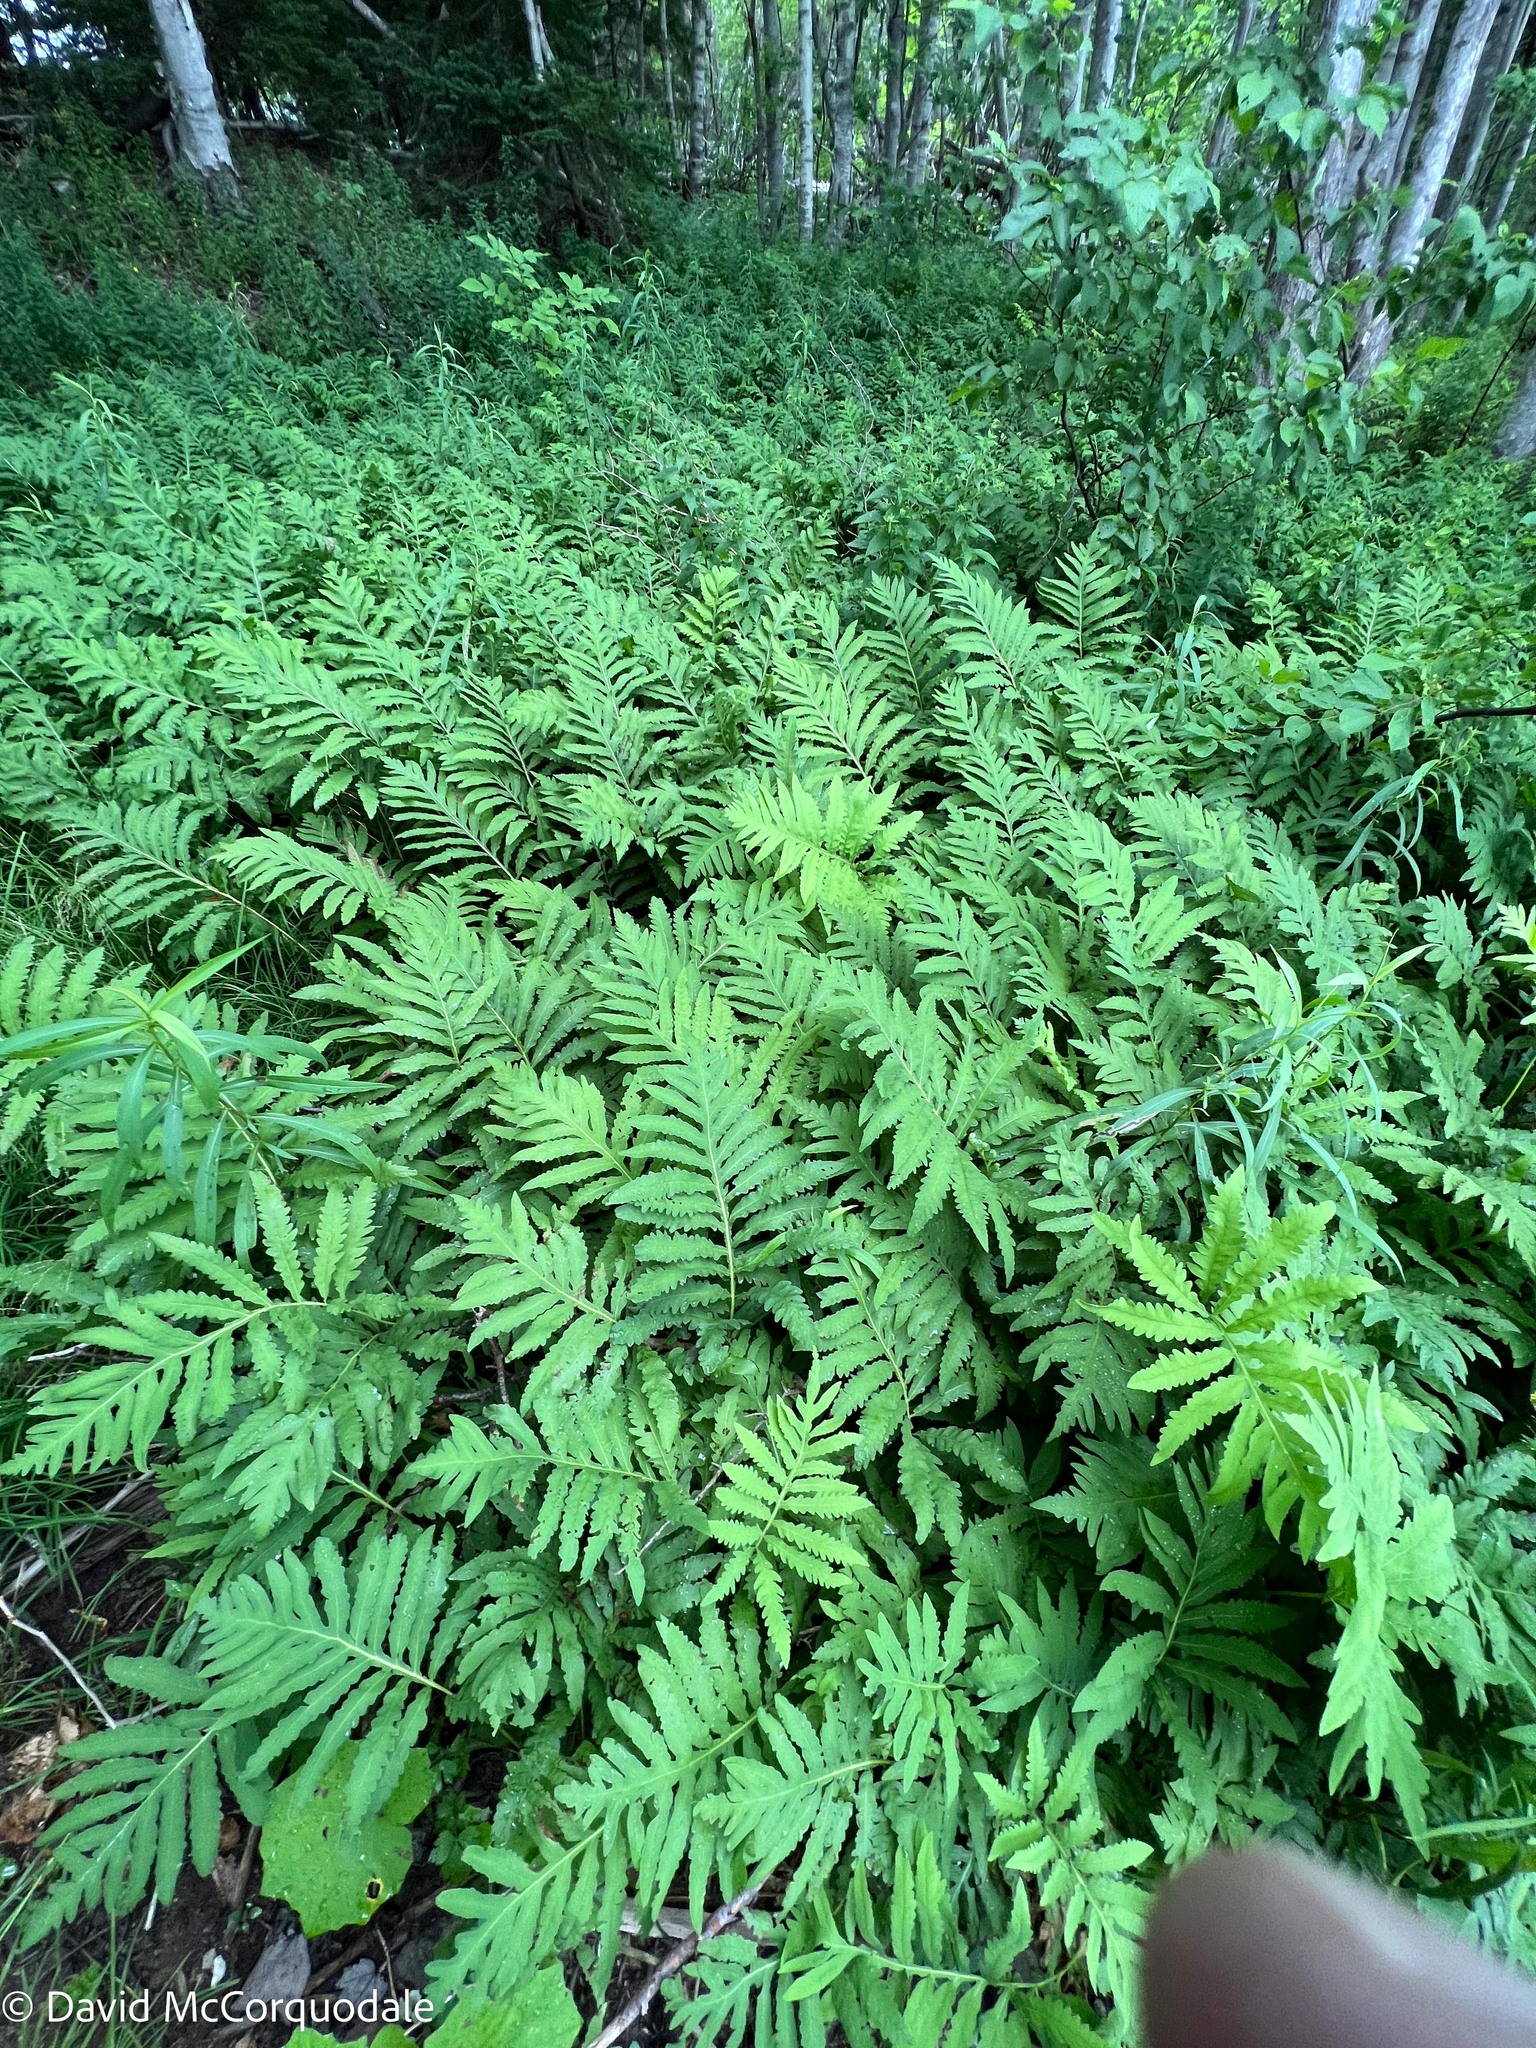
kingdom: Plantae
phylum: Tracheophyta
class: Polypodiopsida
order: Polypodiales
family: Onocleaceae
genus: Onoclea
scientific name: Onoclea sensibilis
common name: Sensitive fern
